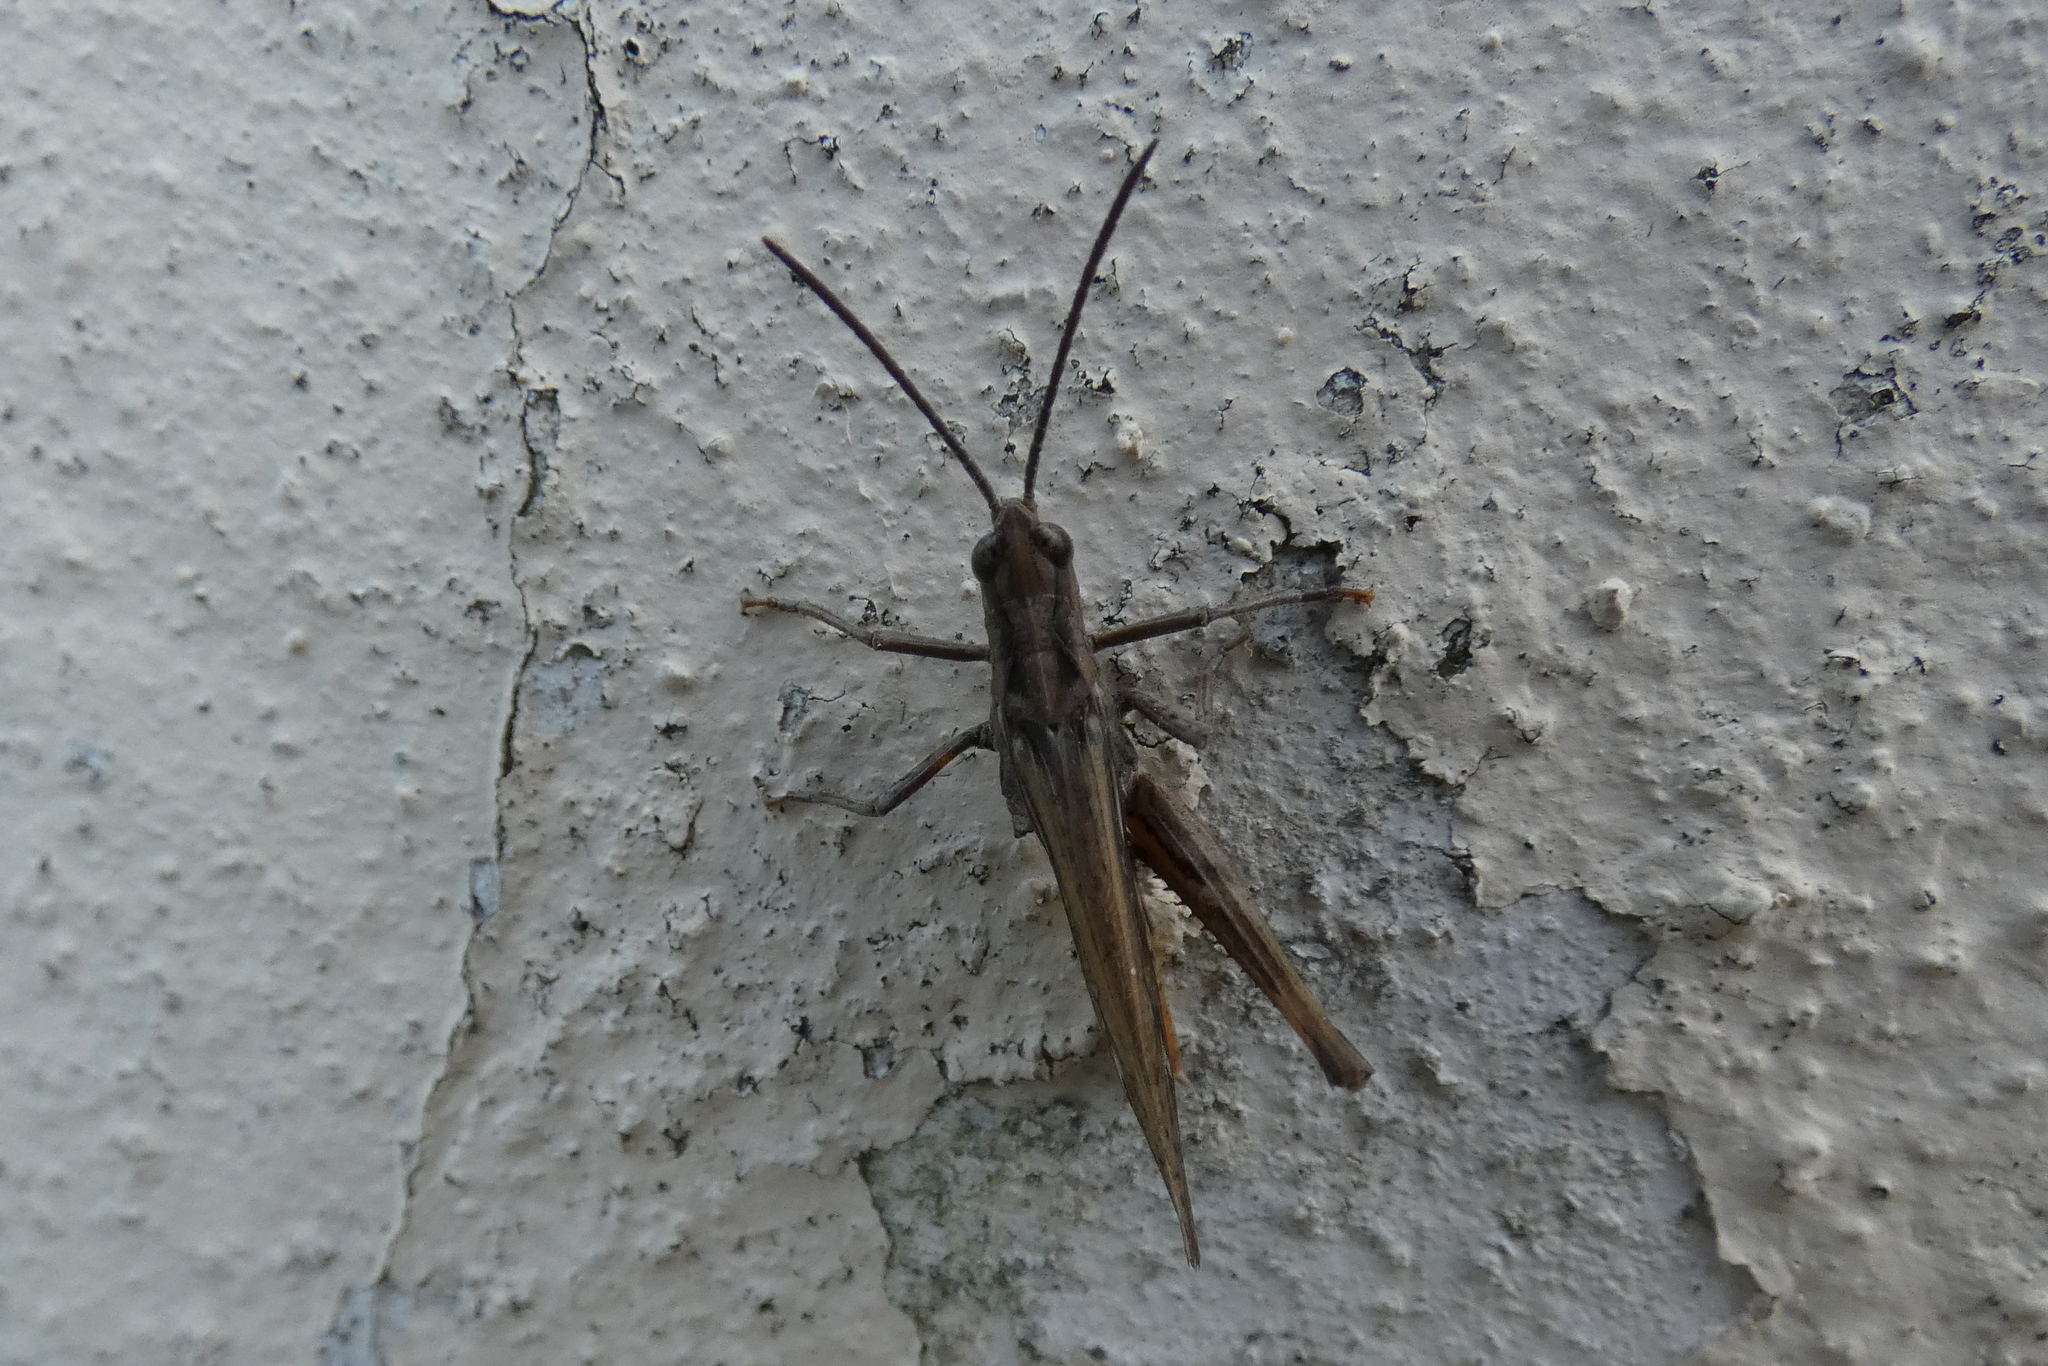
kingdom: Animalia
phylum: Arthropoda
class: Insecta
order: Orthoptera
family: Acrididae
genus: Chorthippus
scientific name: Chorthippus brunneus
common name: Field grasshopper
